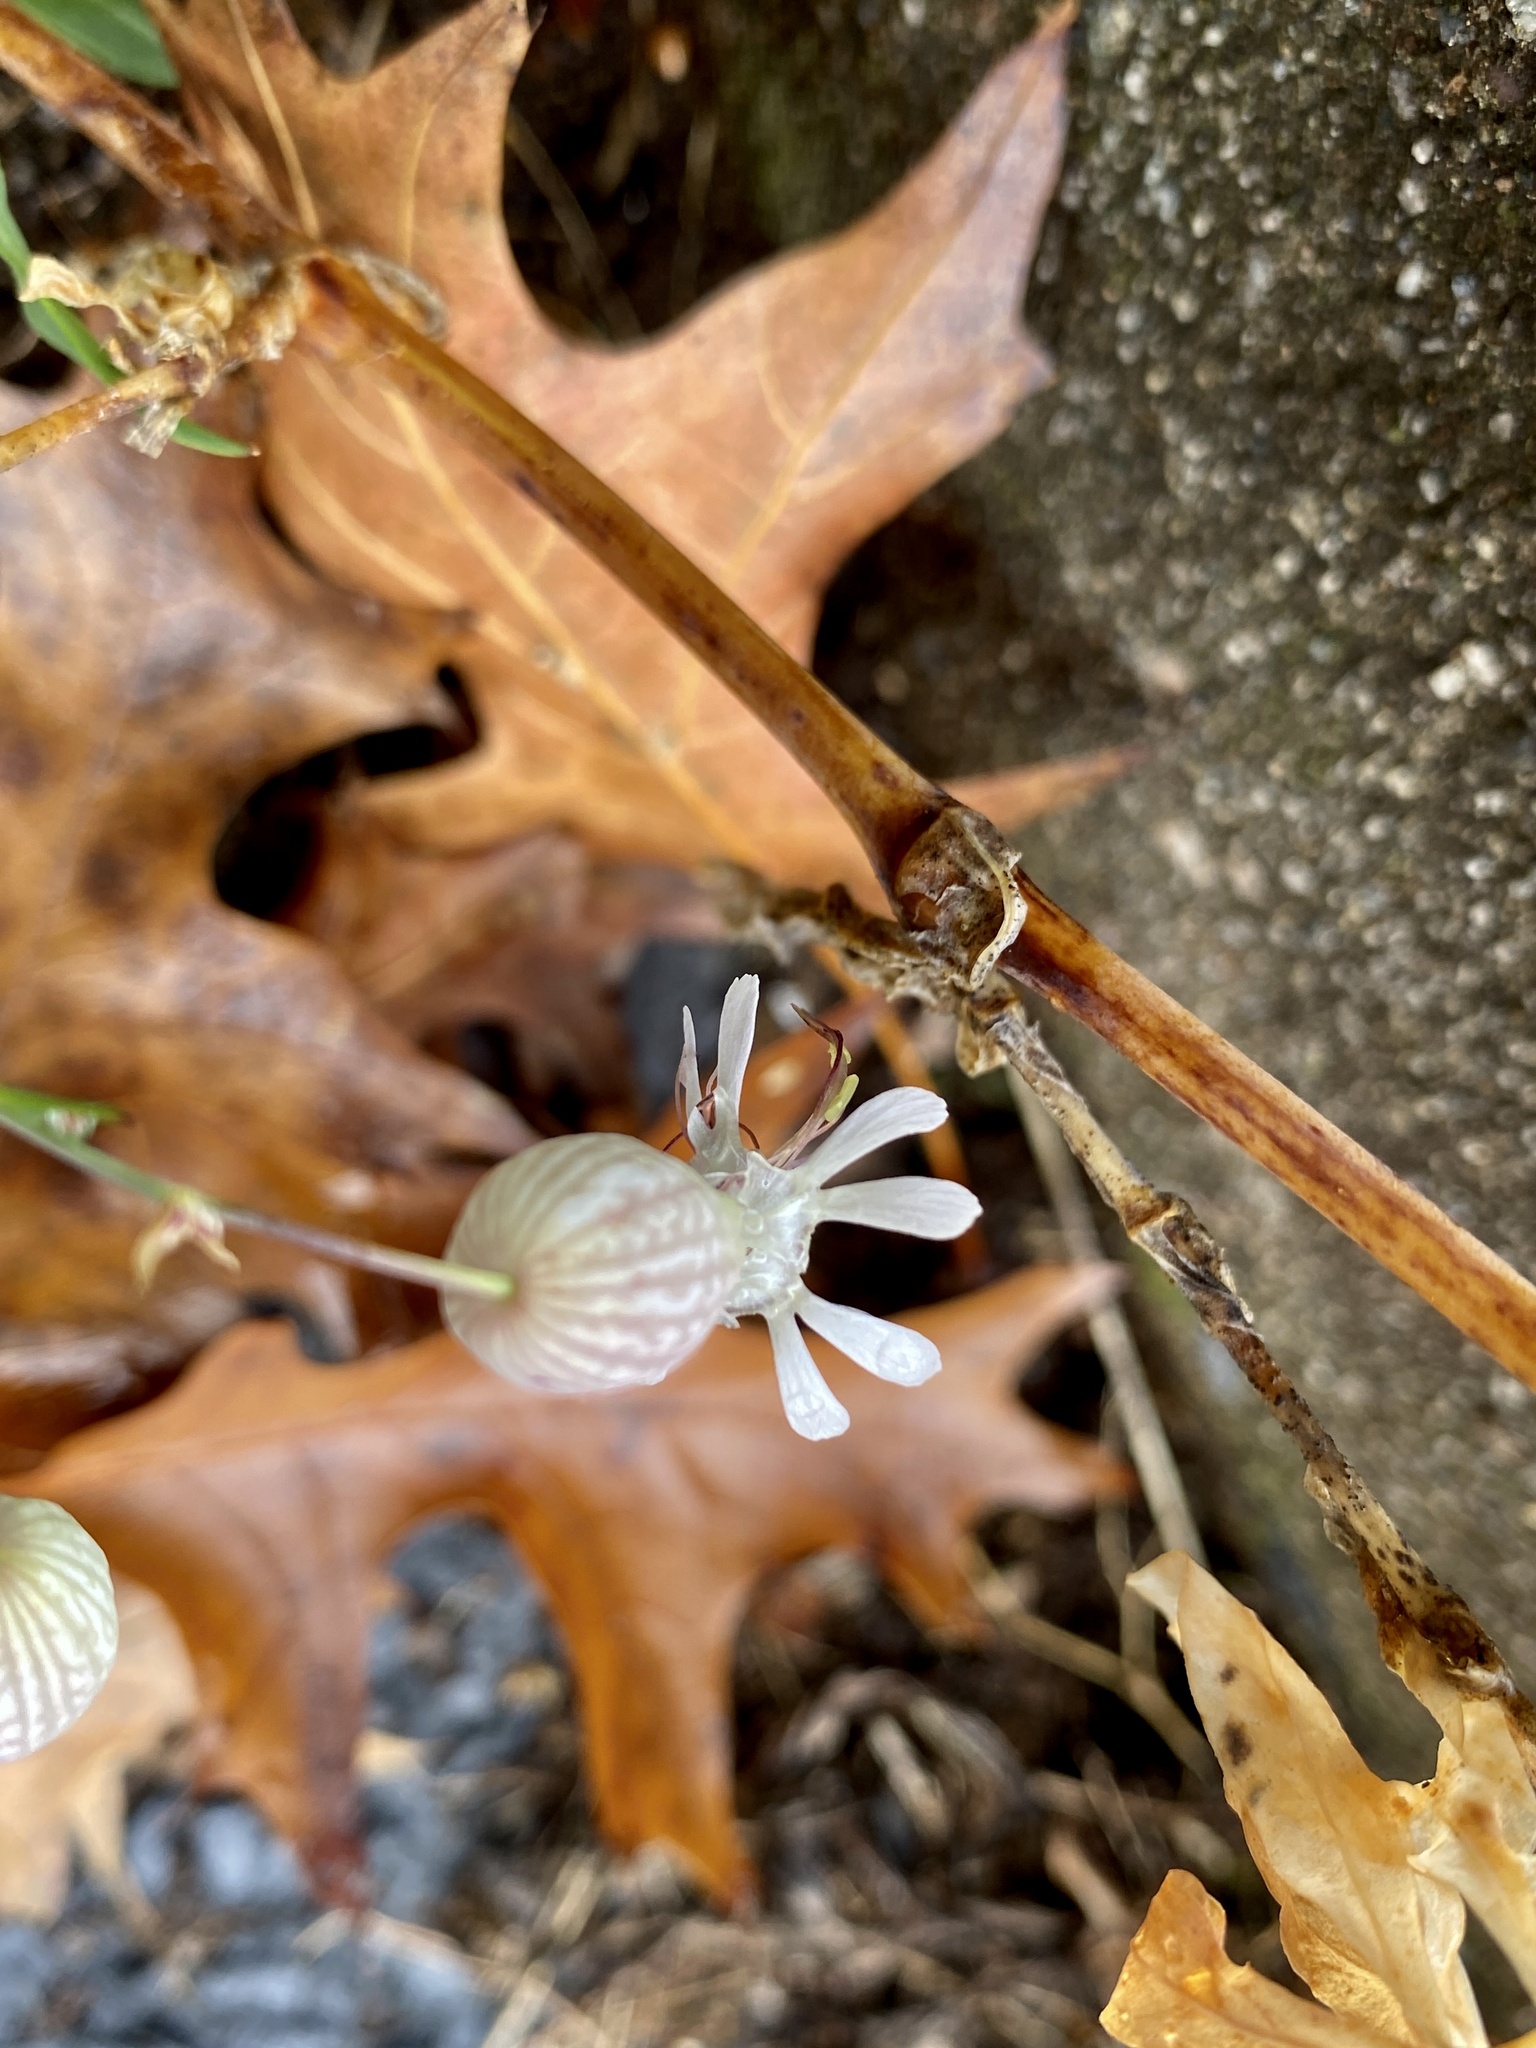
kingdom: Plantae
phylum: Tracheophyta
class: Magnoliopsida
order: Caryophyllales
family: Caryophyllaceae
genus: Silene
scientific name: Silene vulgaris
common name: Bladder campion
